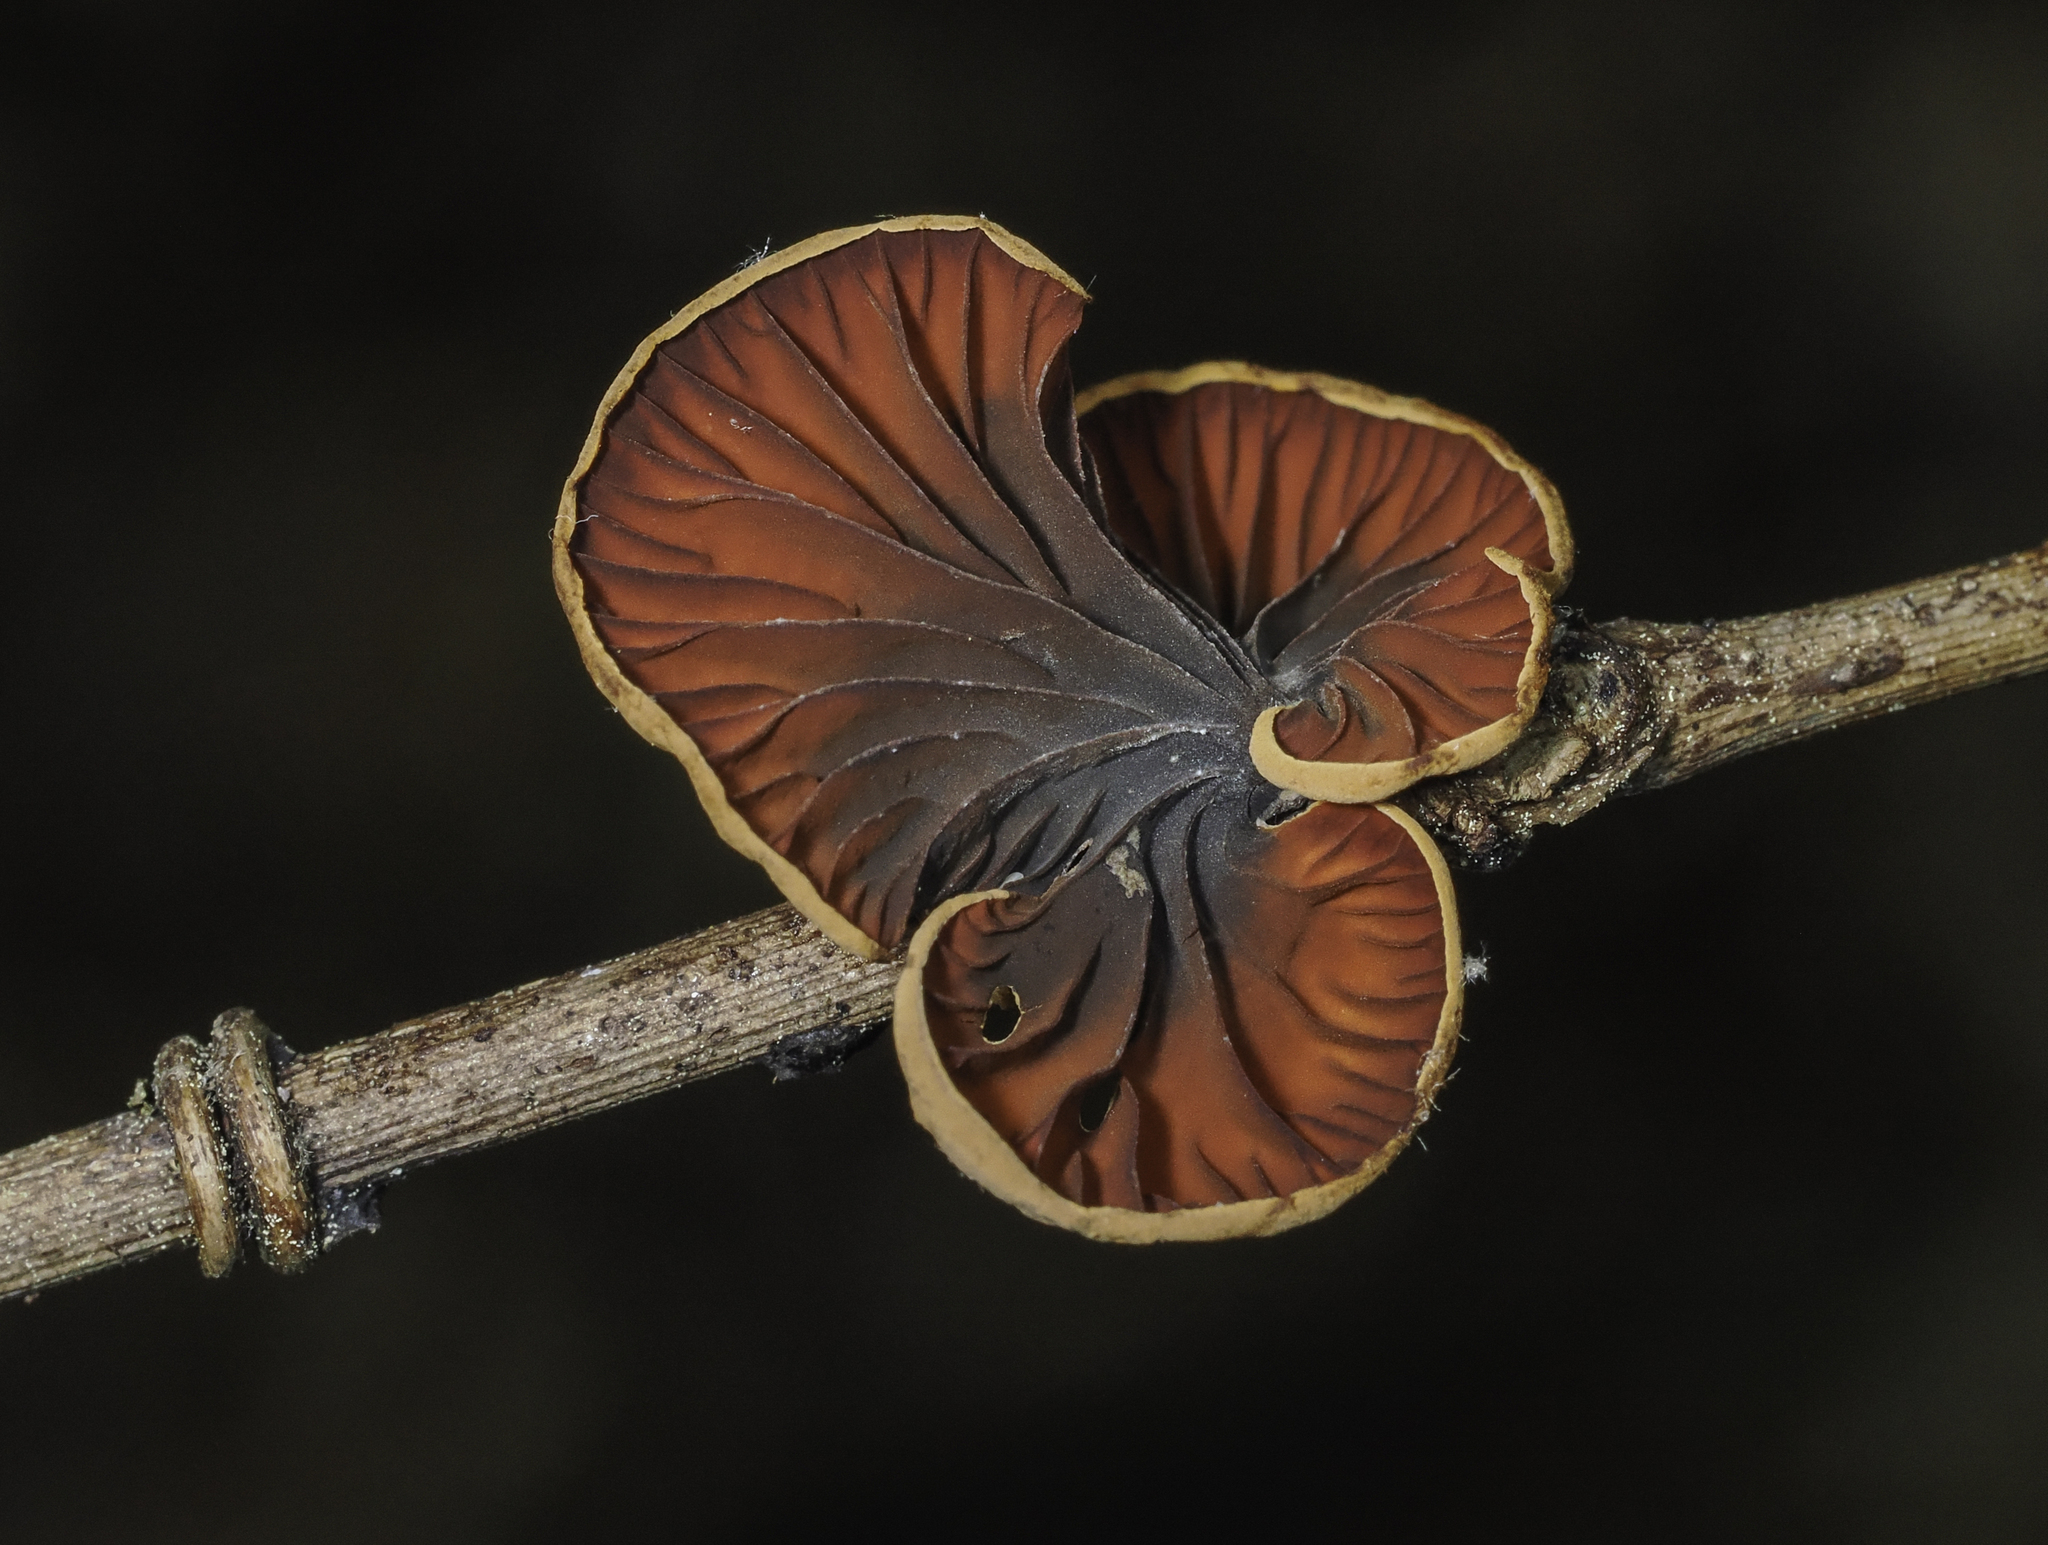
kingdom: Fungi
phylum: Basidiomycota
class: Agaricomycetes
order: Agaricales
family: Omphalotaceae
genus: Anthracophyllum
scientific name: Anthracophyllum lateritium
